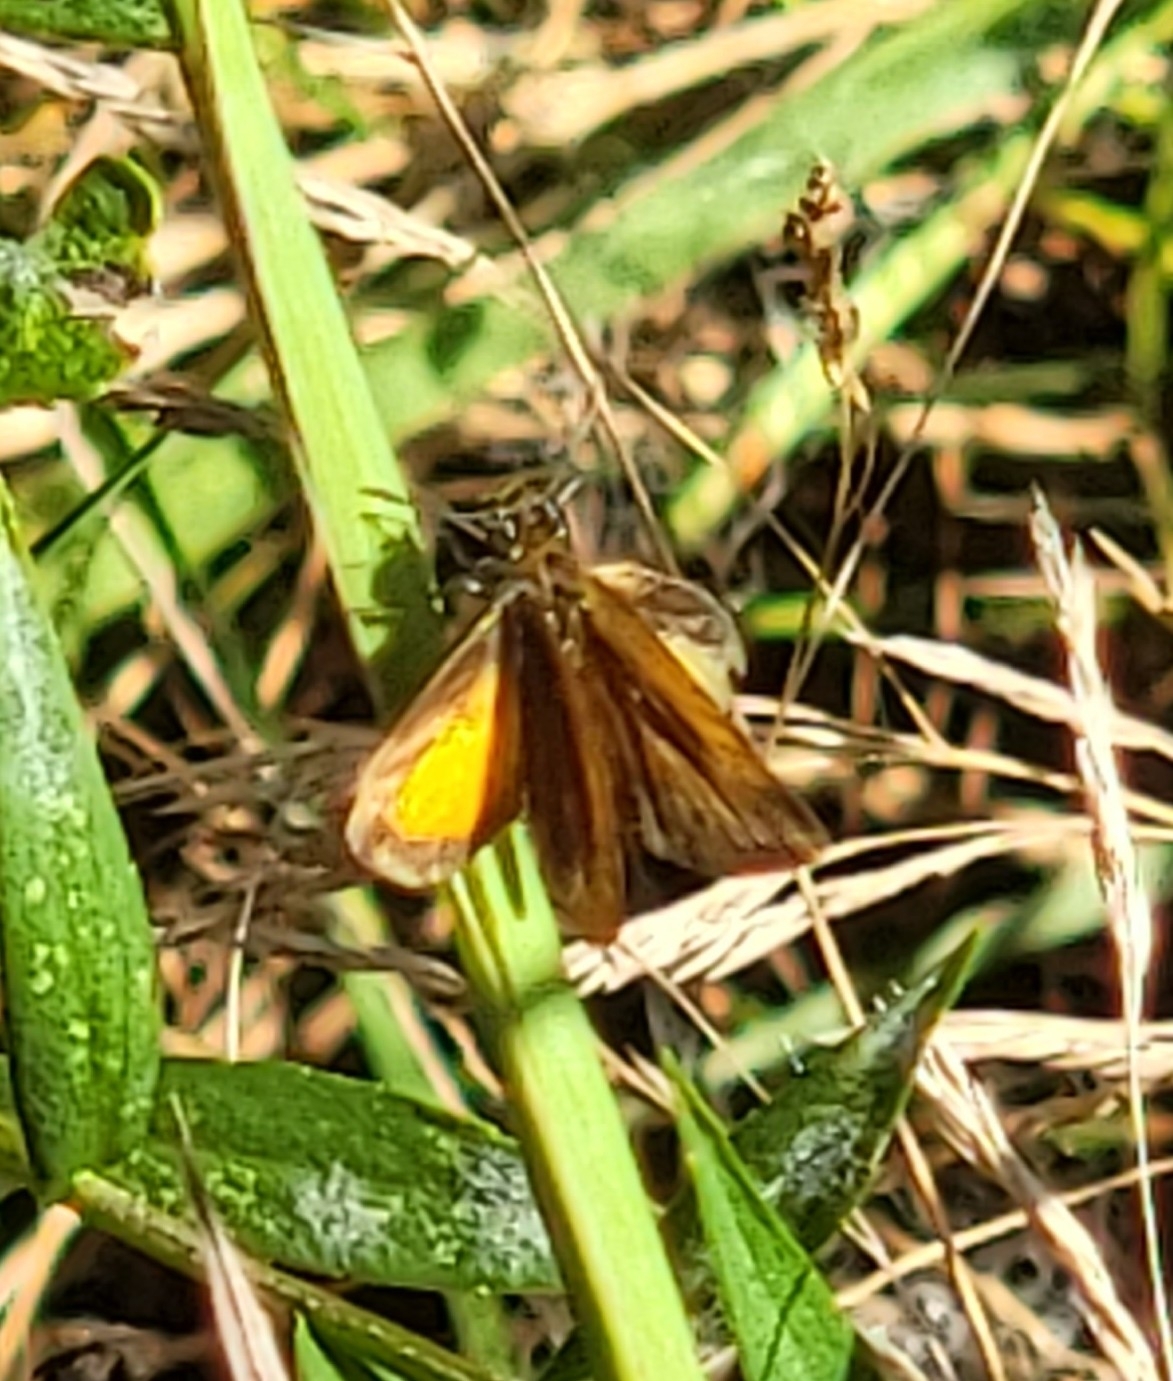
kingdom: Animalia
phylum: Arthropoda
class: Insecta
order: Lepidoptera
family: Hesperiidae
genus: Ancyloxypha
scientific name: Ancyloxypha numitor
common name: Least skipper
